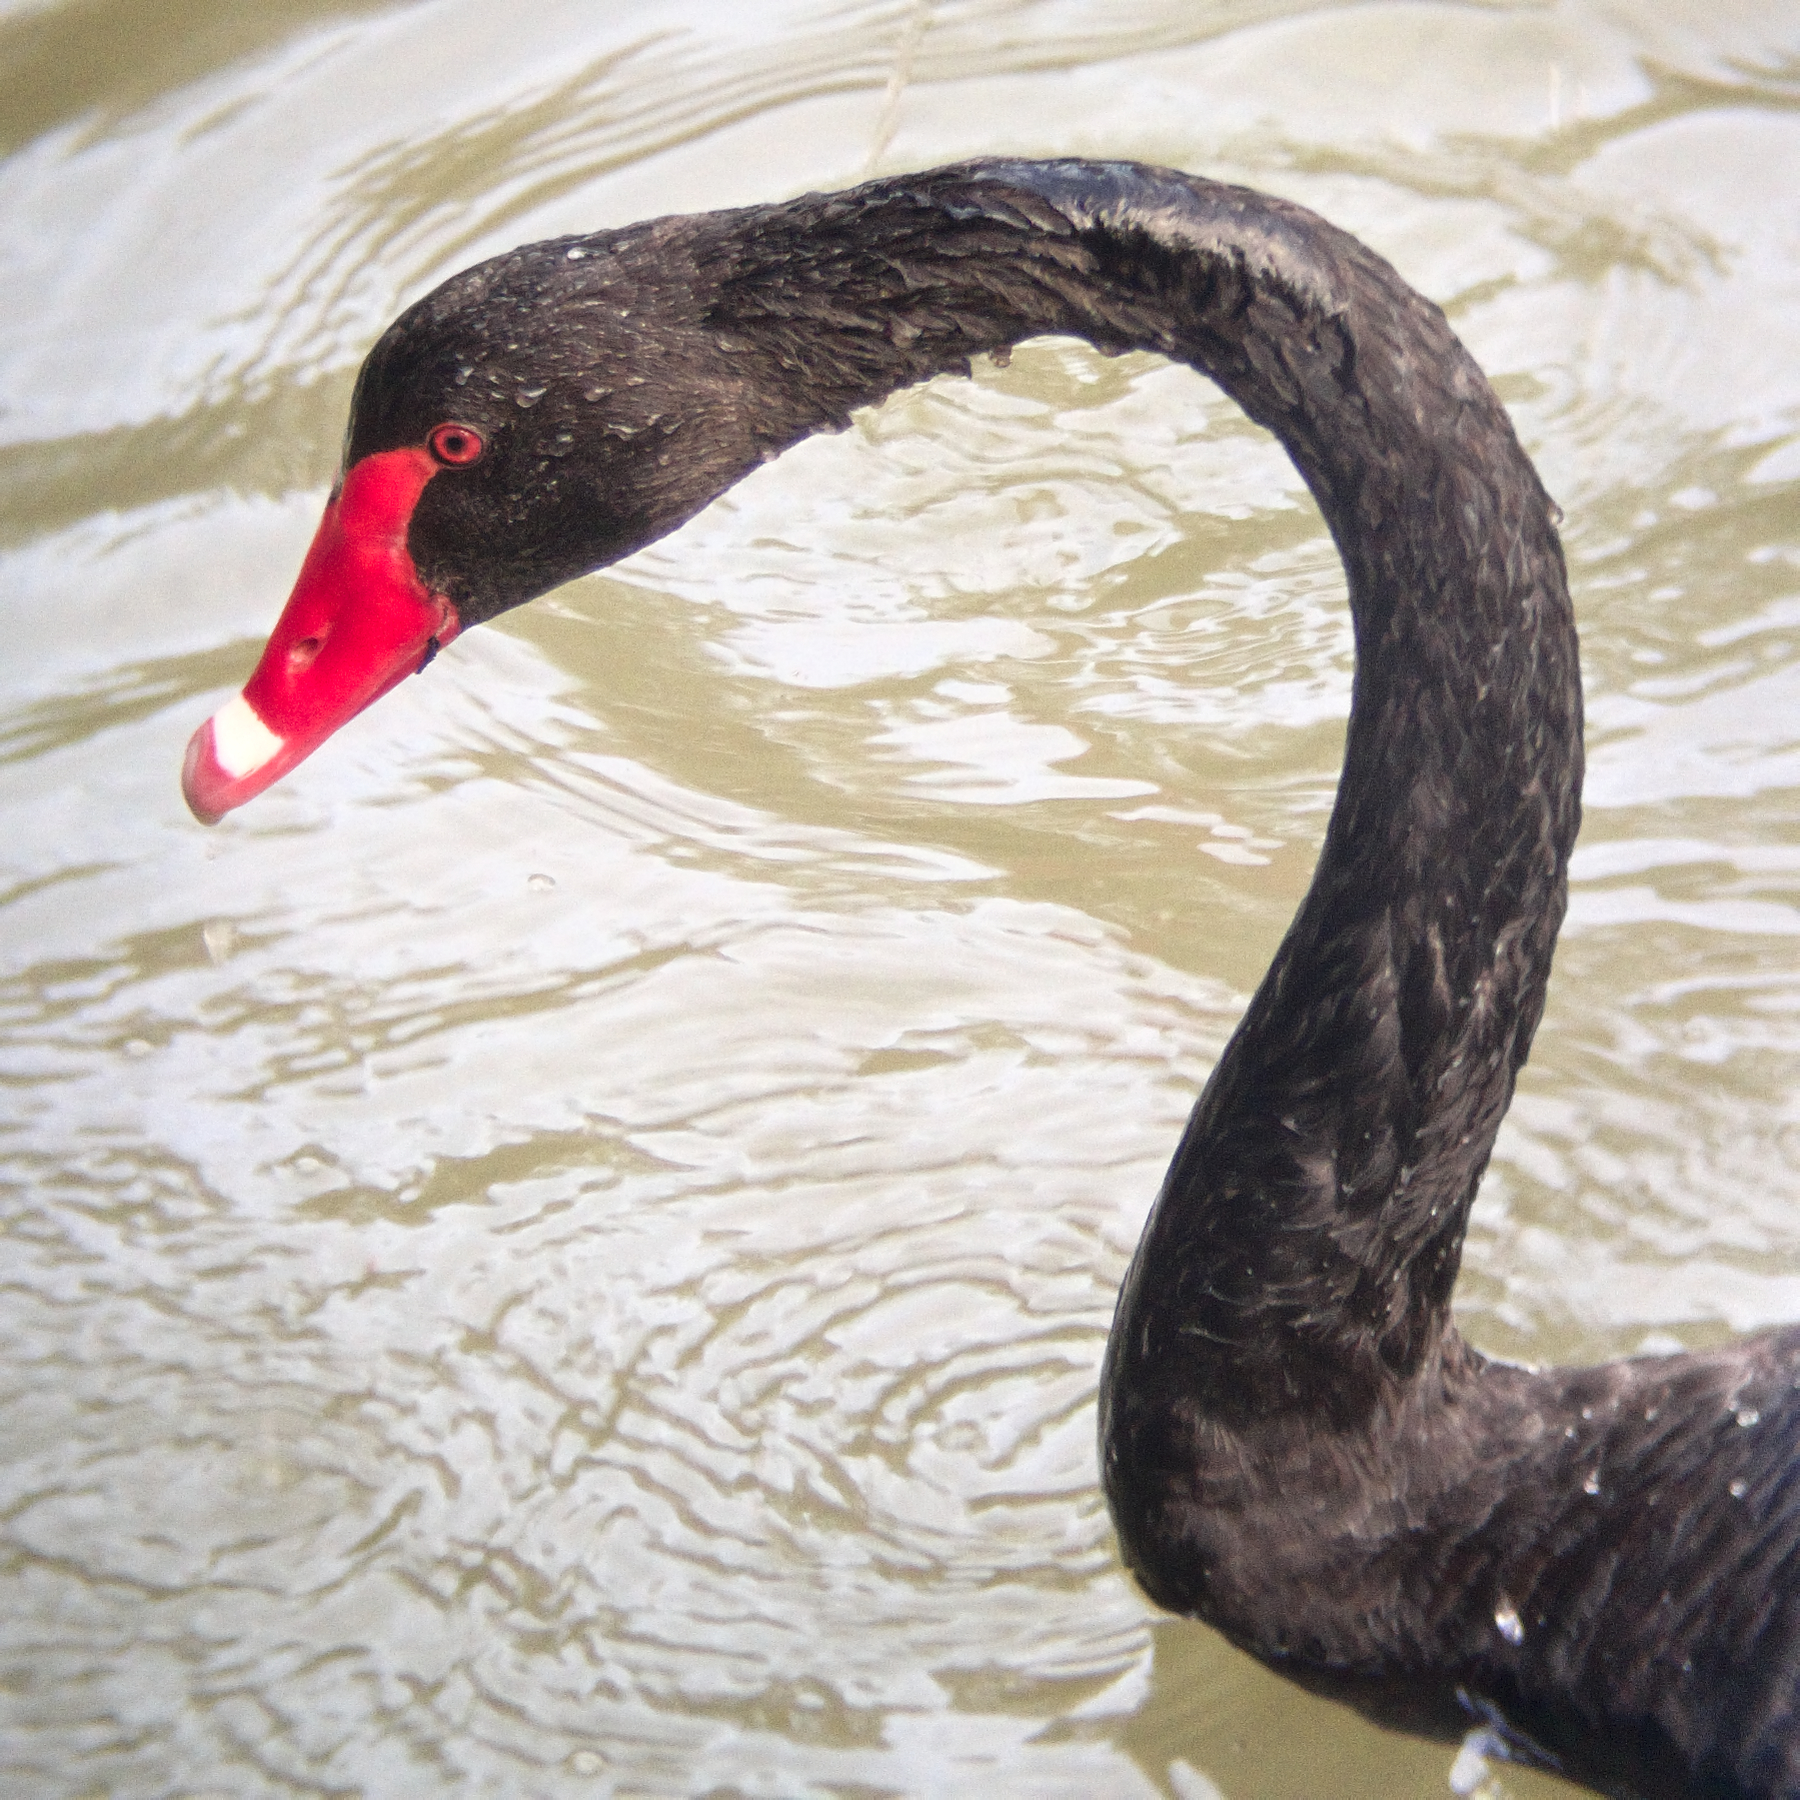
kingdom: Animalia
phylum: Chordata
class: Aves
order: Anseriformes
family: Anatidae
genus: Cygnus
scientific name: Cygnus atratus
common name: Black swan
